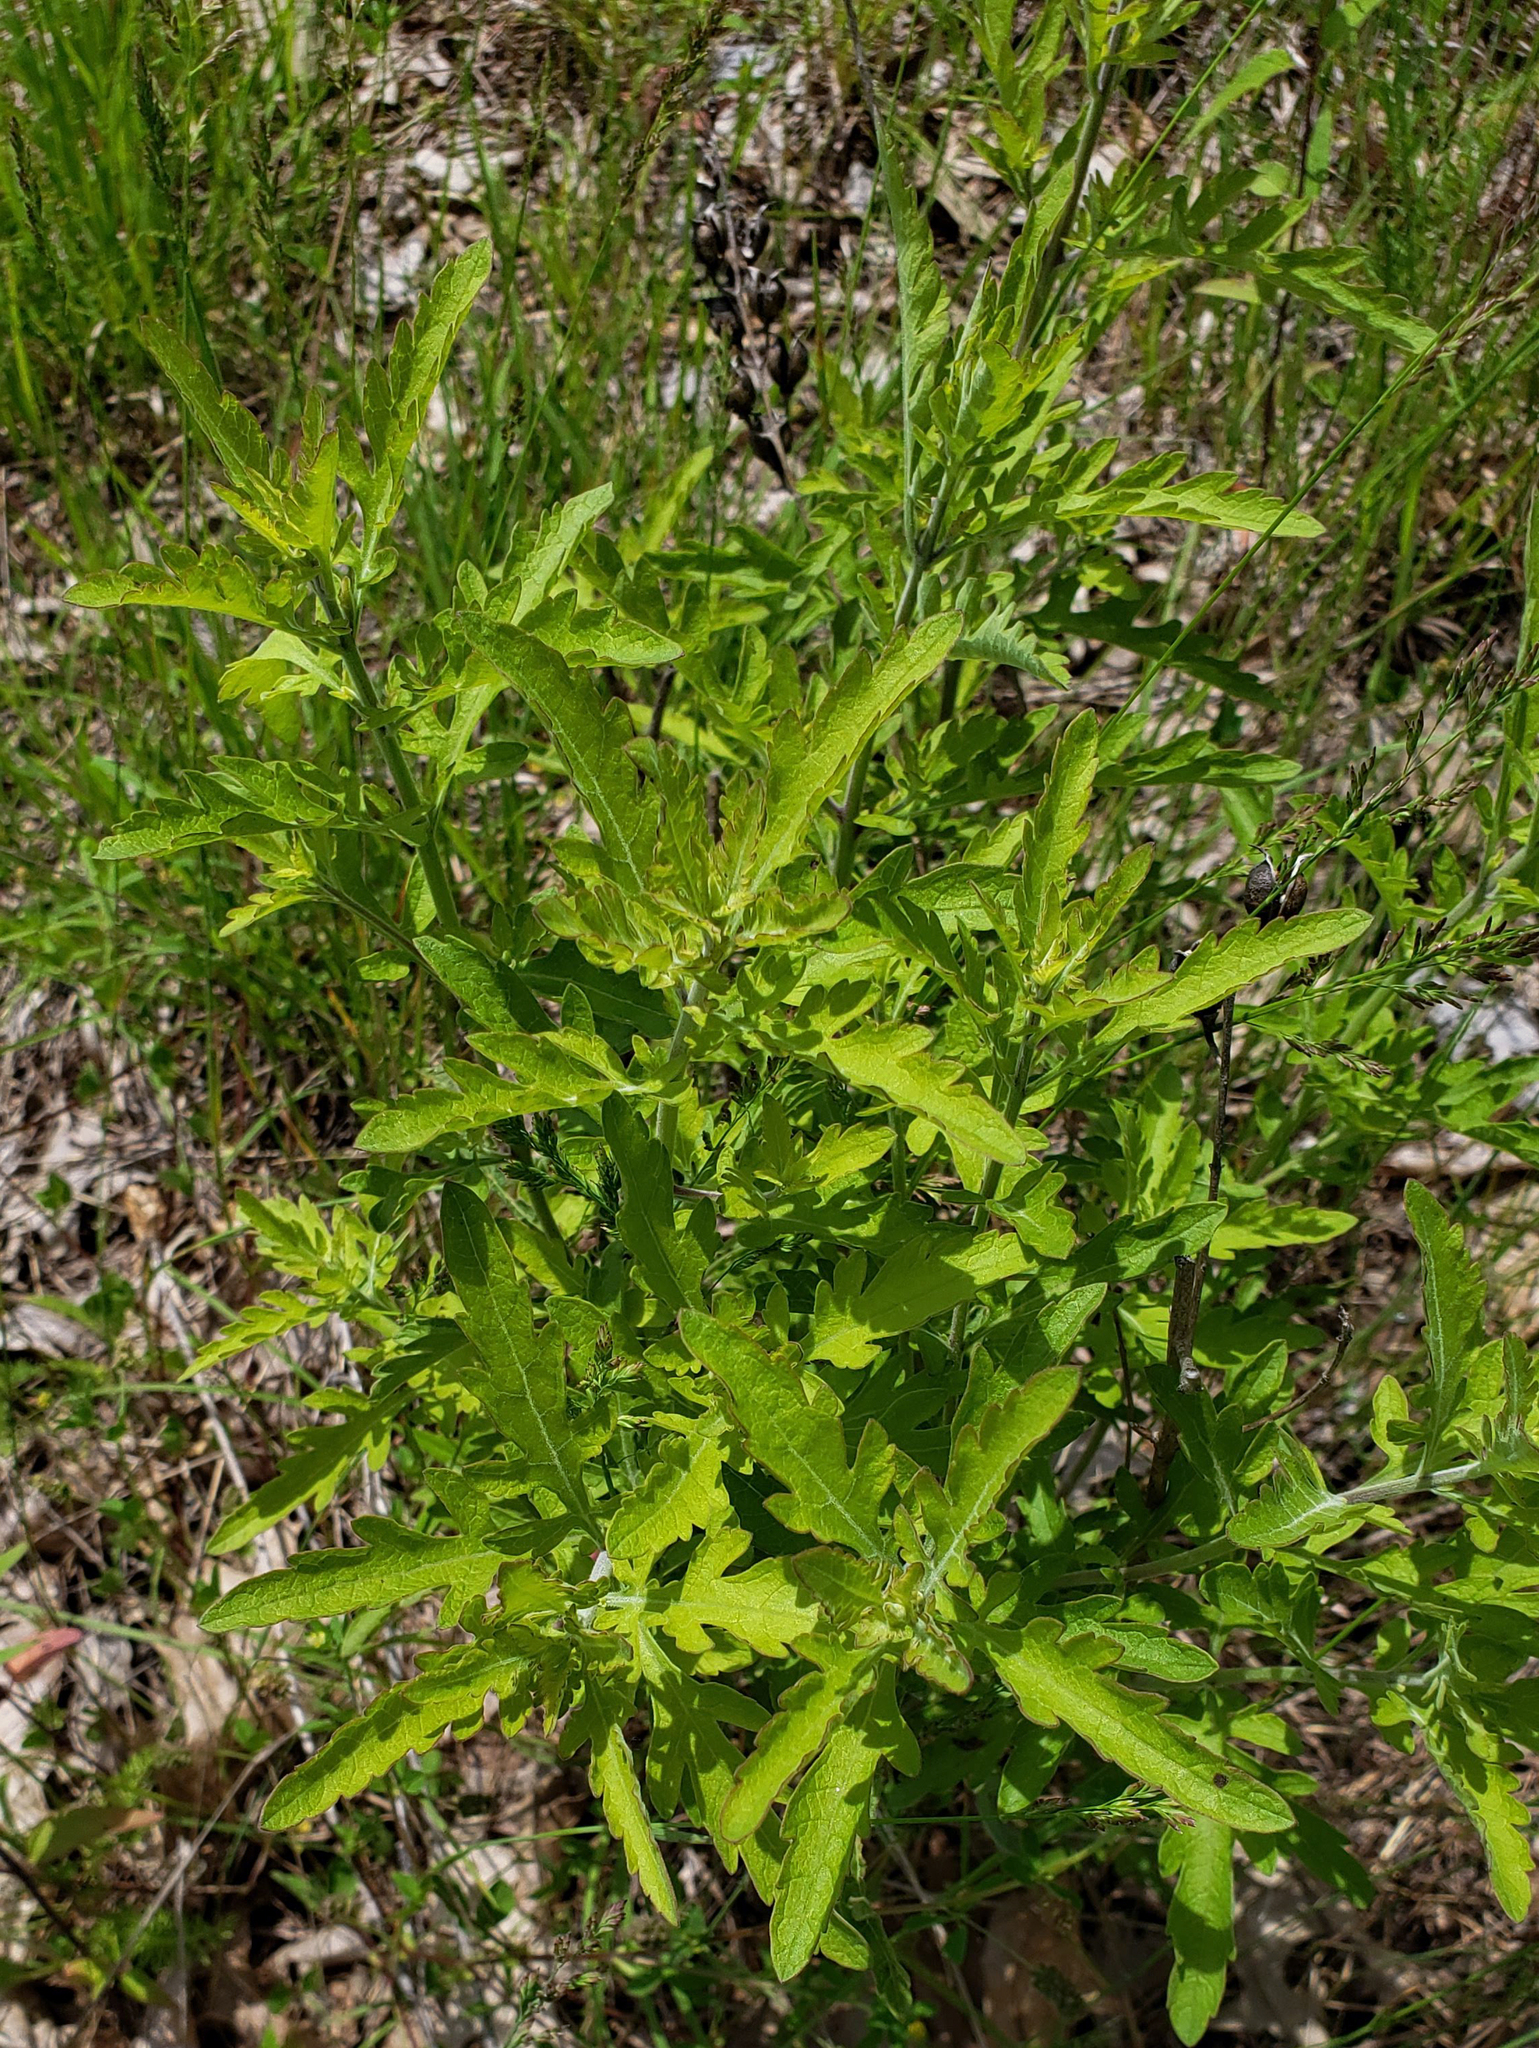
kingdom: Plantae
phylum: Tracheophyta
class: Magnoliopsida
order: Lamiales
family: Orobanchaceae
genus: Aureolaria
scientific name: Aureolaria grandiflora
